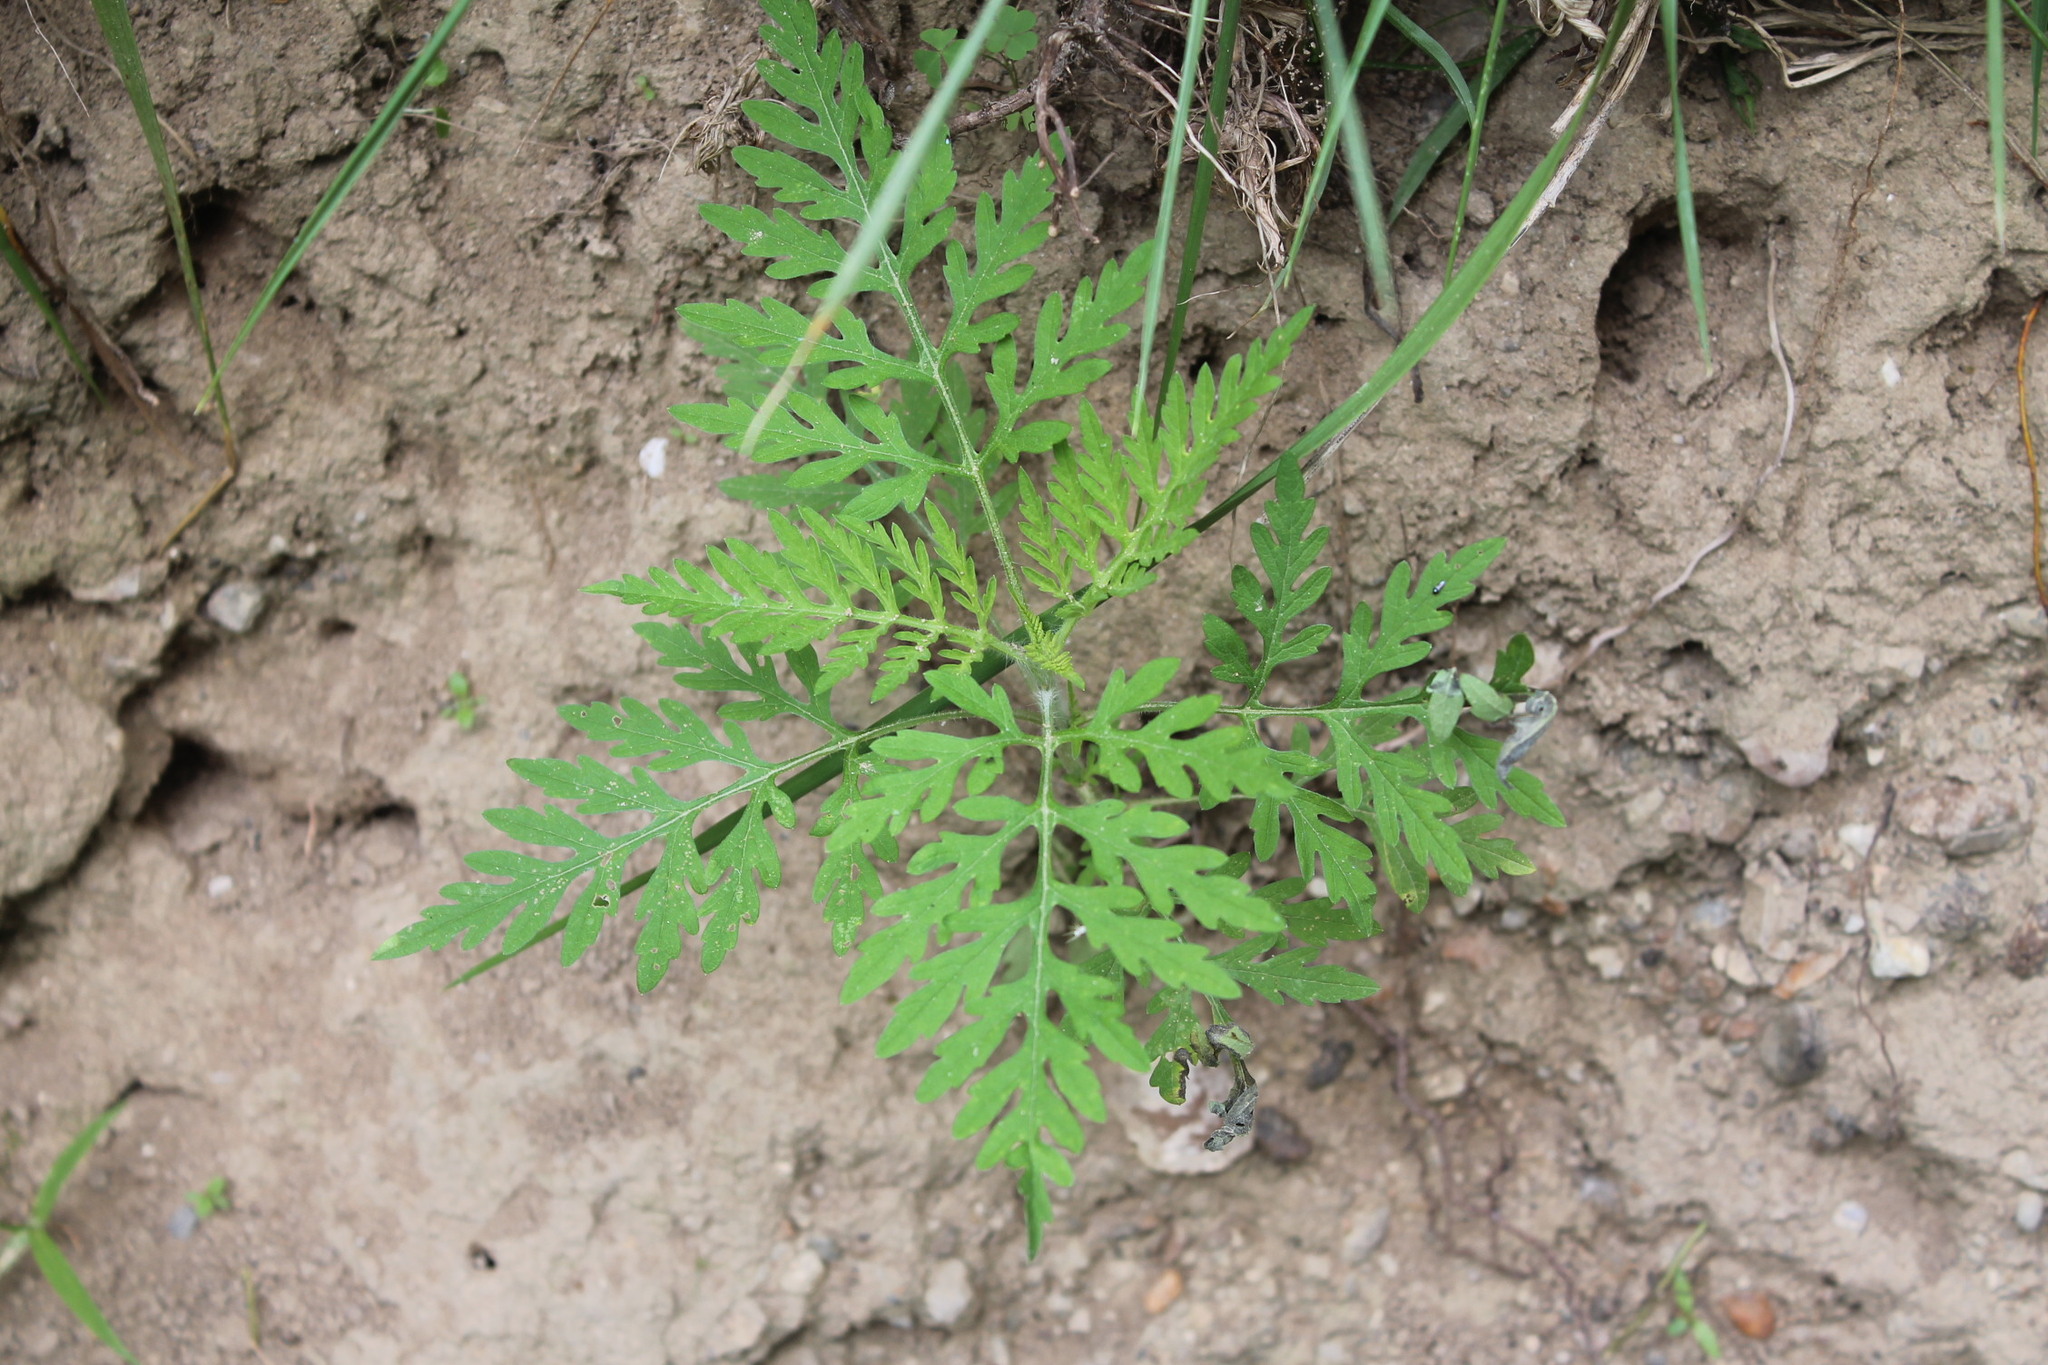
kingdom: Plantae
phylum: Tracheophyta
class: Magnoliopsida
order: Asterales
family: Asteraceae
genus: Ambrosia
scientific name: Ambrosia artemisiifolia
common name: Annual ragweed
